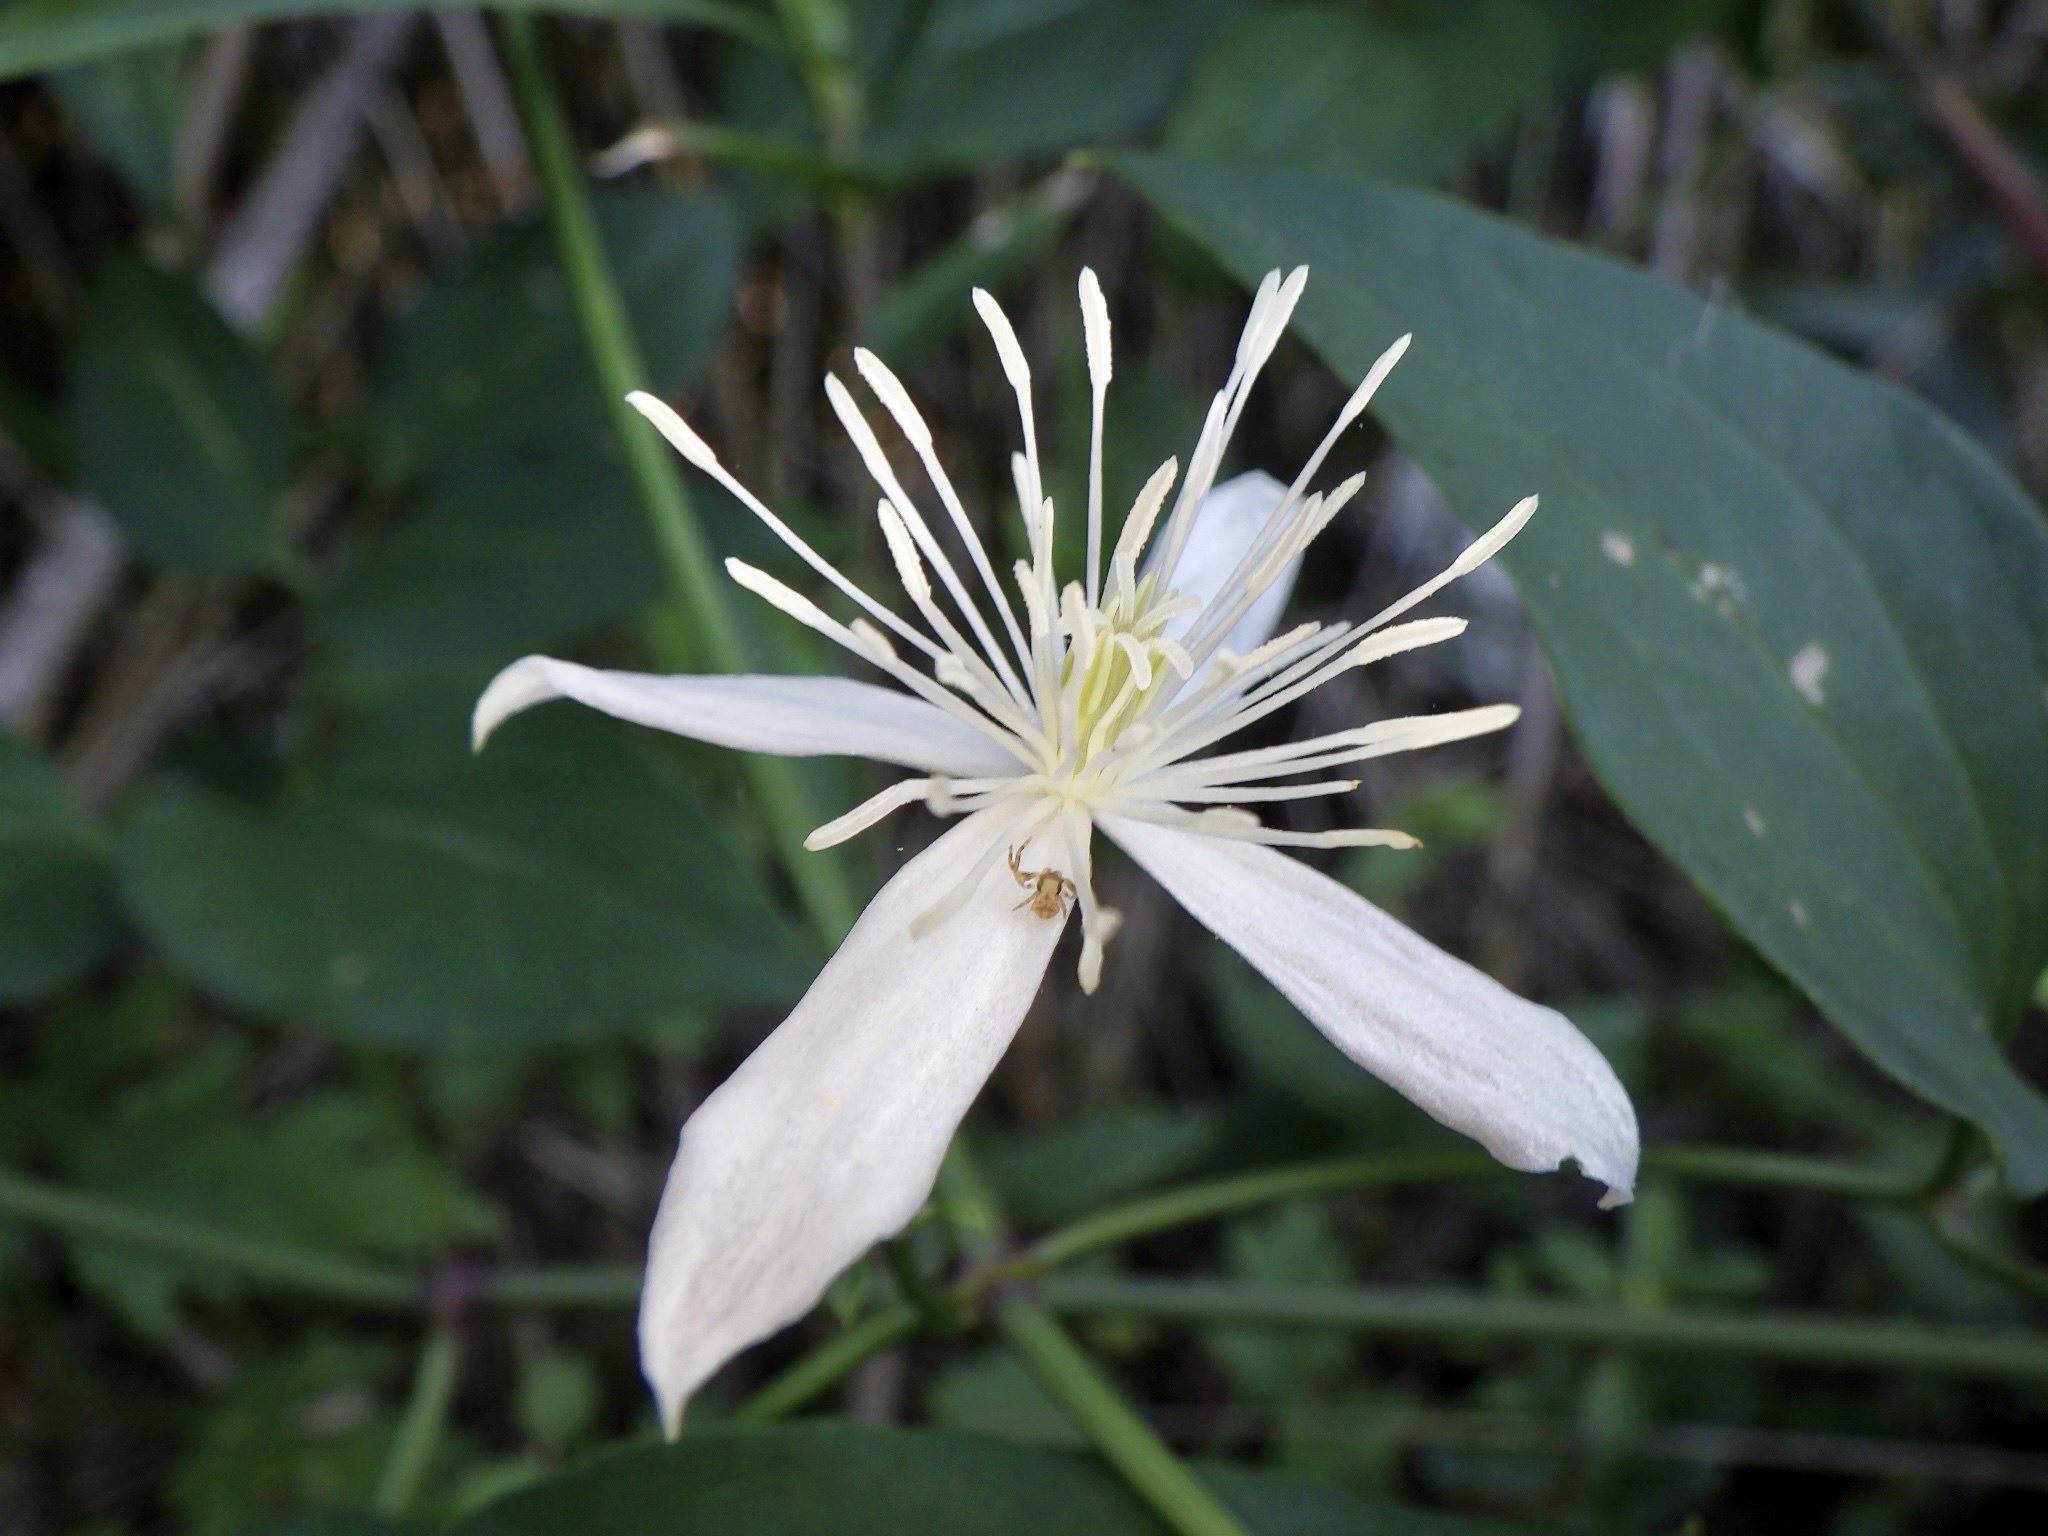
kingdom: Plantae
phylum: Tracheophyta
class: Magnoliopsida
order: Ranunculales
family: Ranunculaceae
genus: Clematis
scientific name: Clematis terniflora
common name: Sweet autumn clematis
